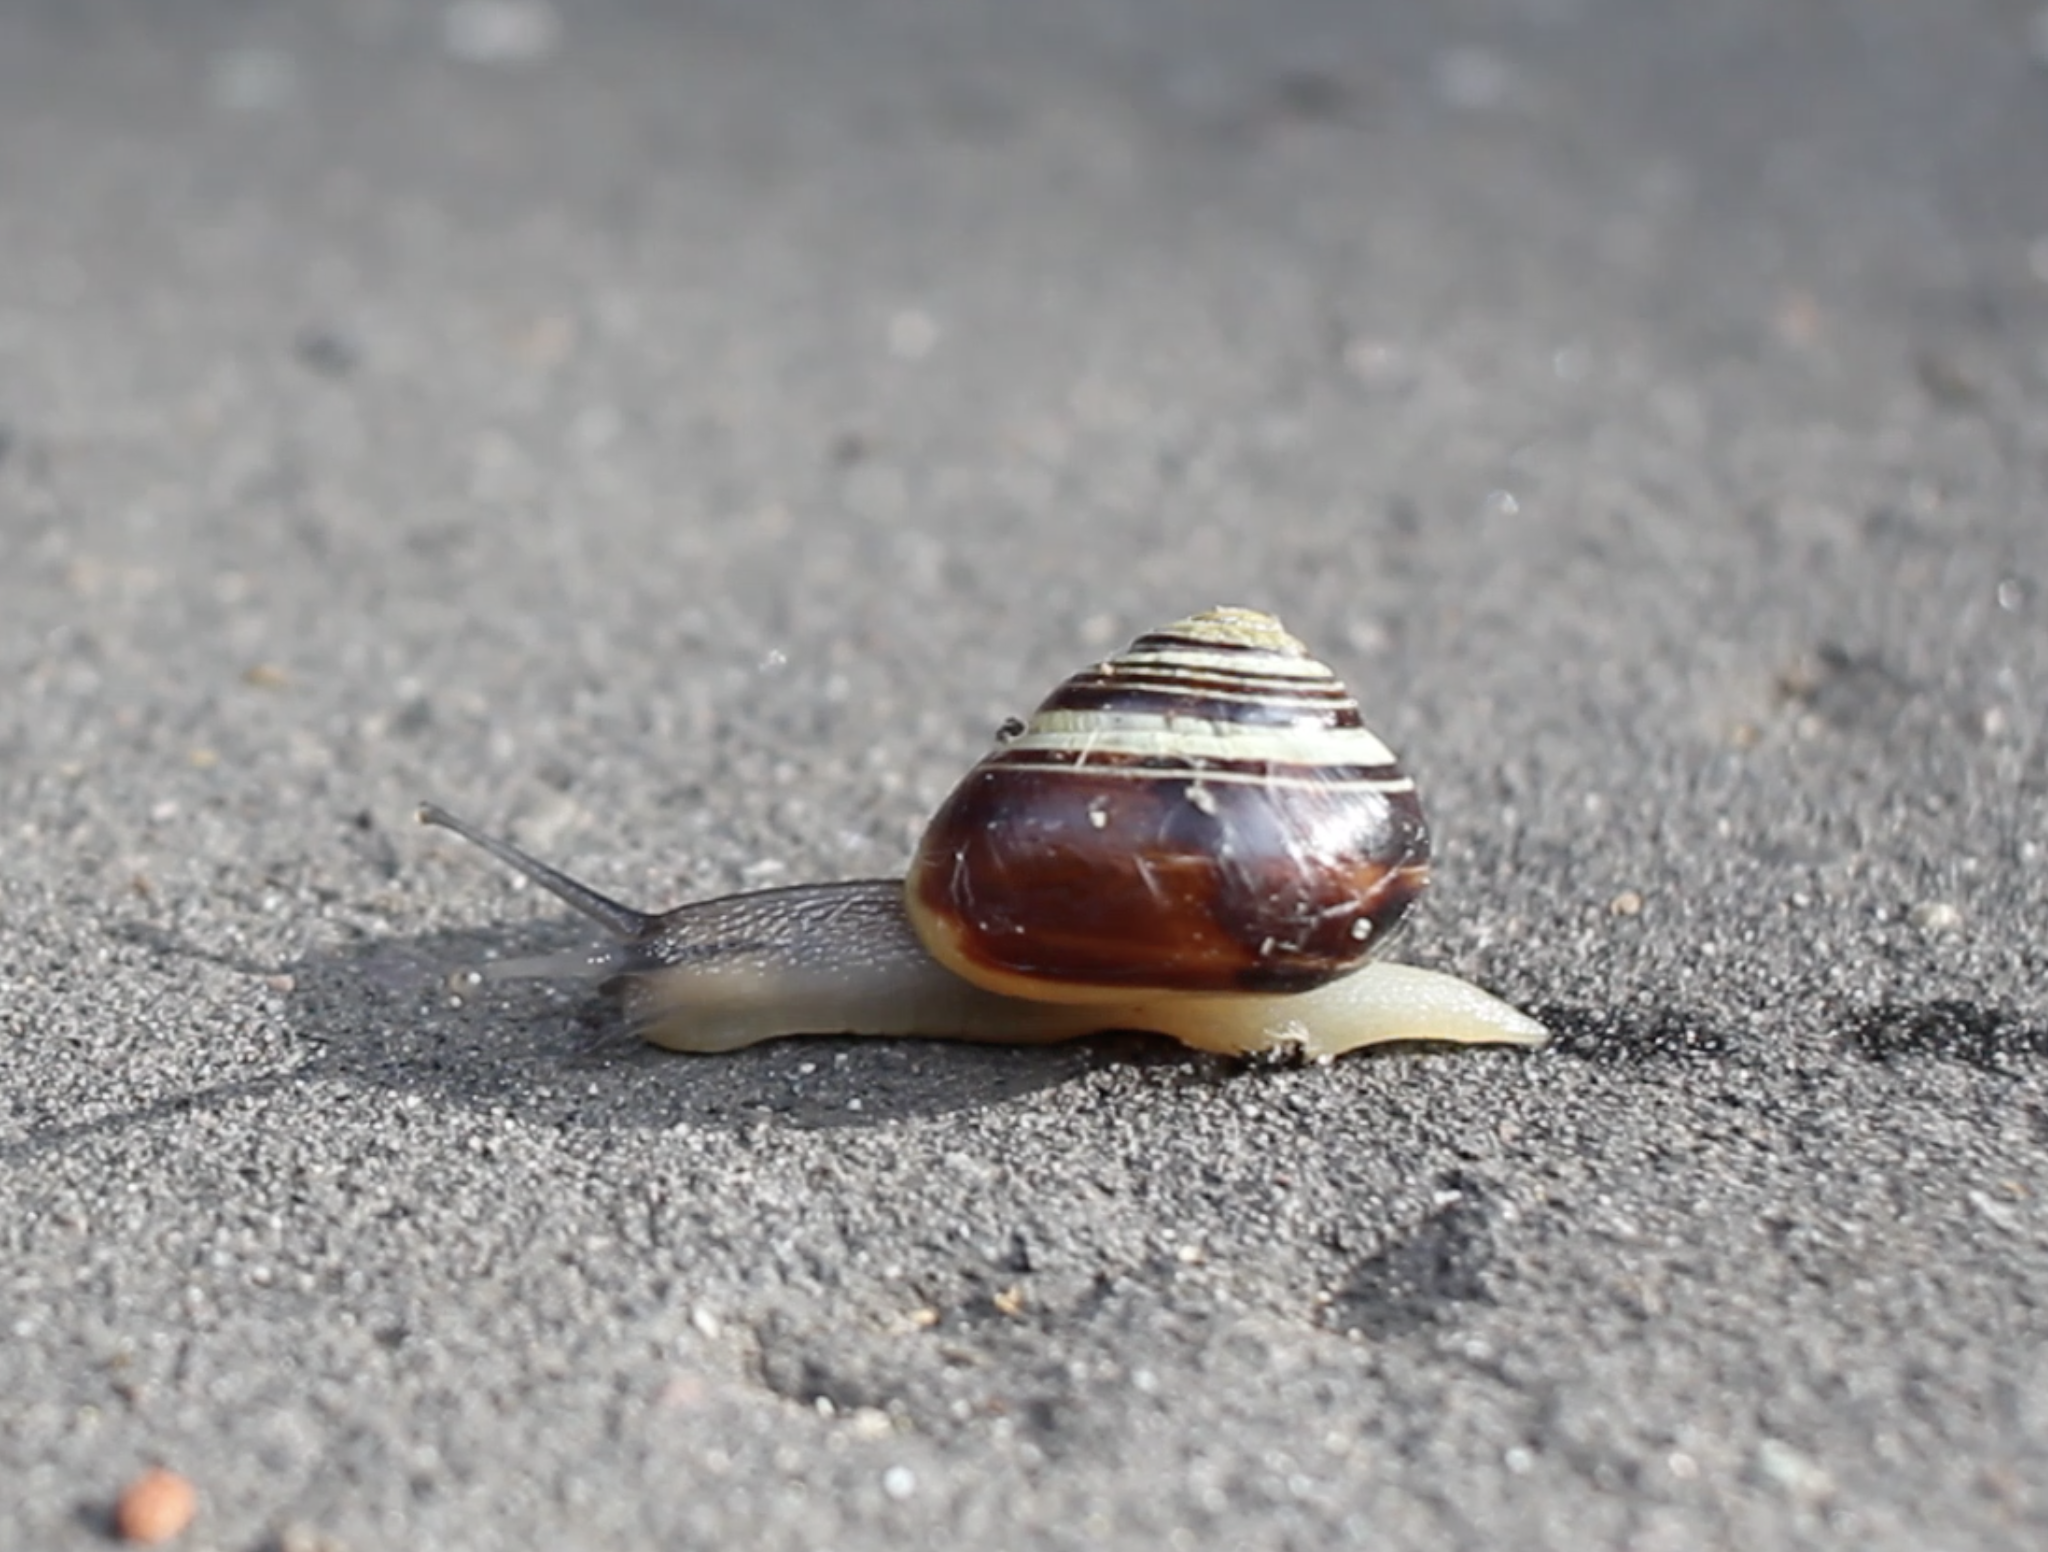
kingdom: Animalia
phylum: Mollusca
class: Gastropoda
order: Stylommatophora
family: Helicidae
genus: Cepaea
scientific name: Cepaea nemoralis
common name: Grovesnail
